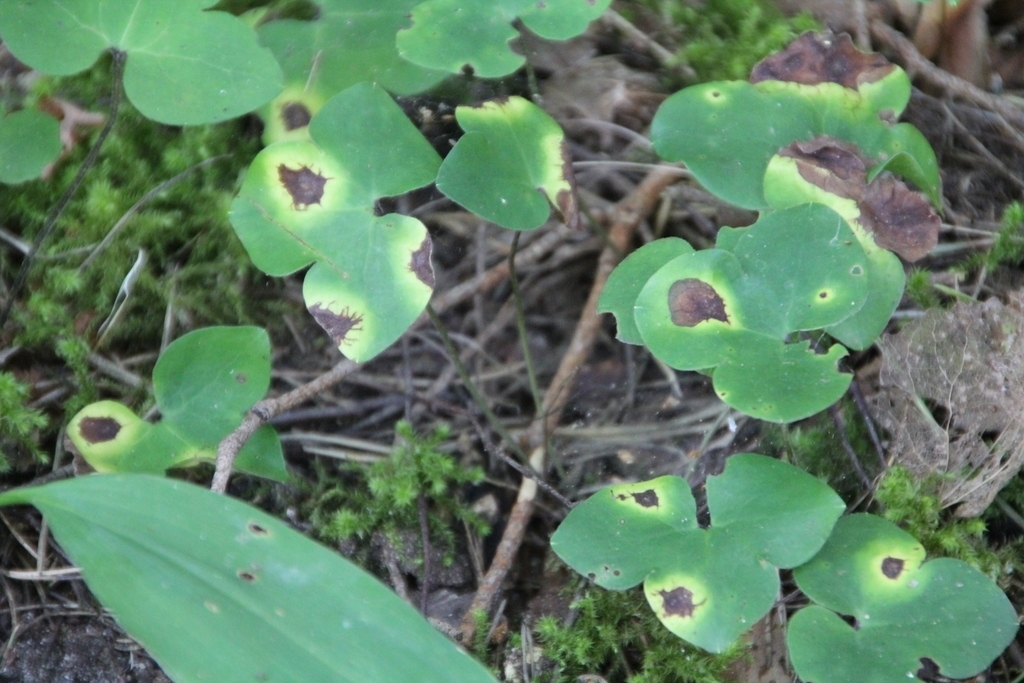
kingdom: Plantae
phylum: Tracheophyta
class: Magnoliopsida
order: Ranunculales
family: Ranunculaceae
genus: Hepatica
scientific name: Hepatica nobilis
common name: Liverleaf
